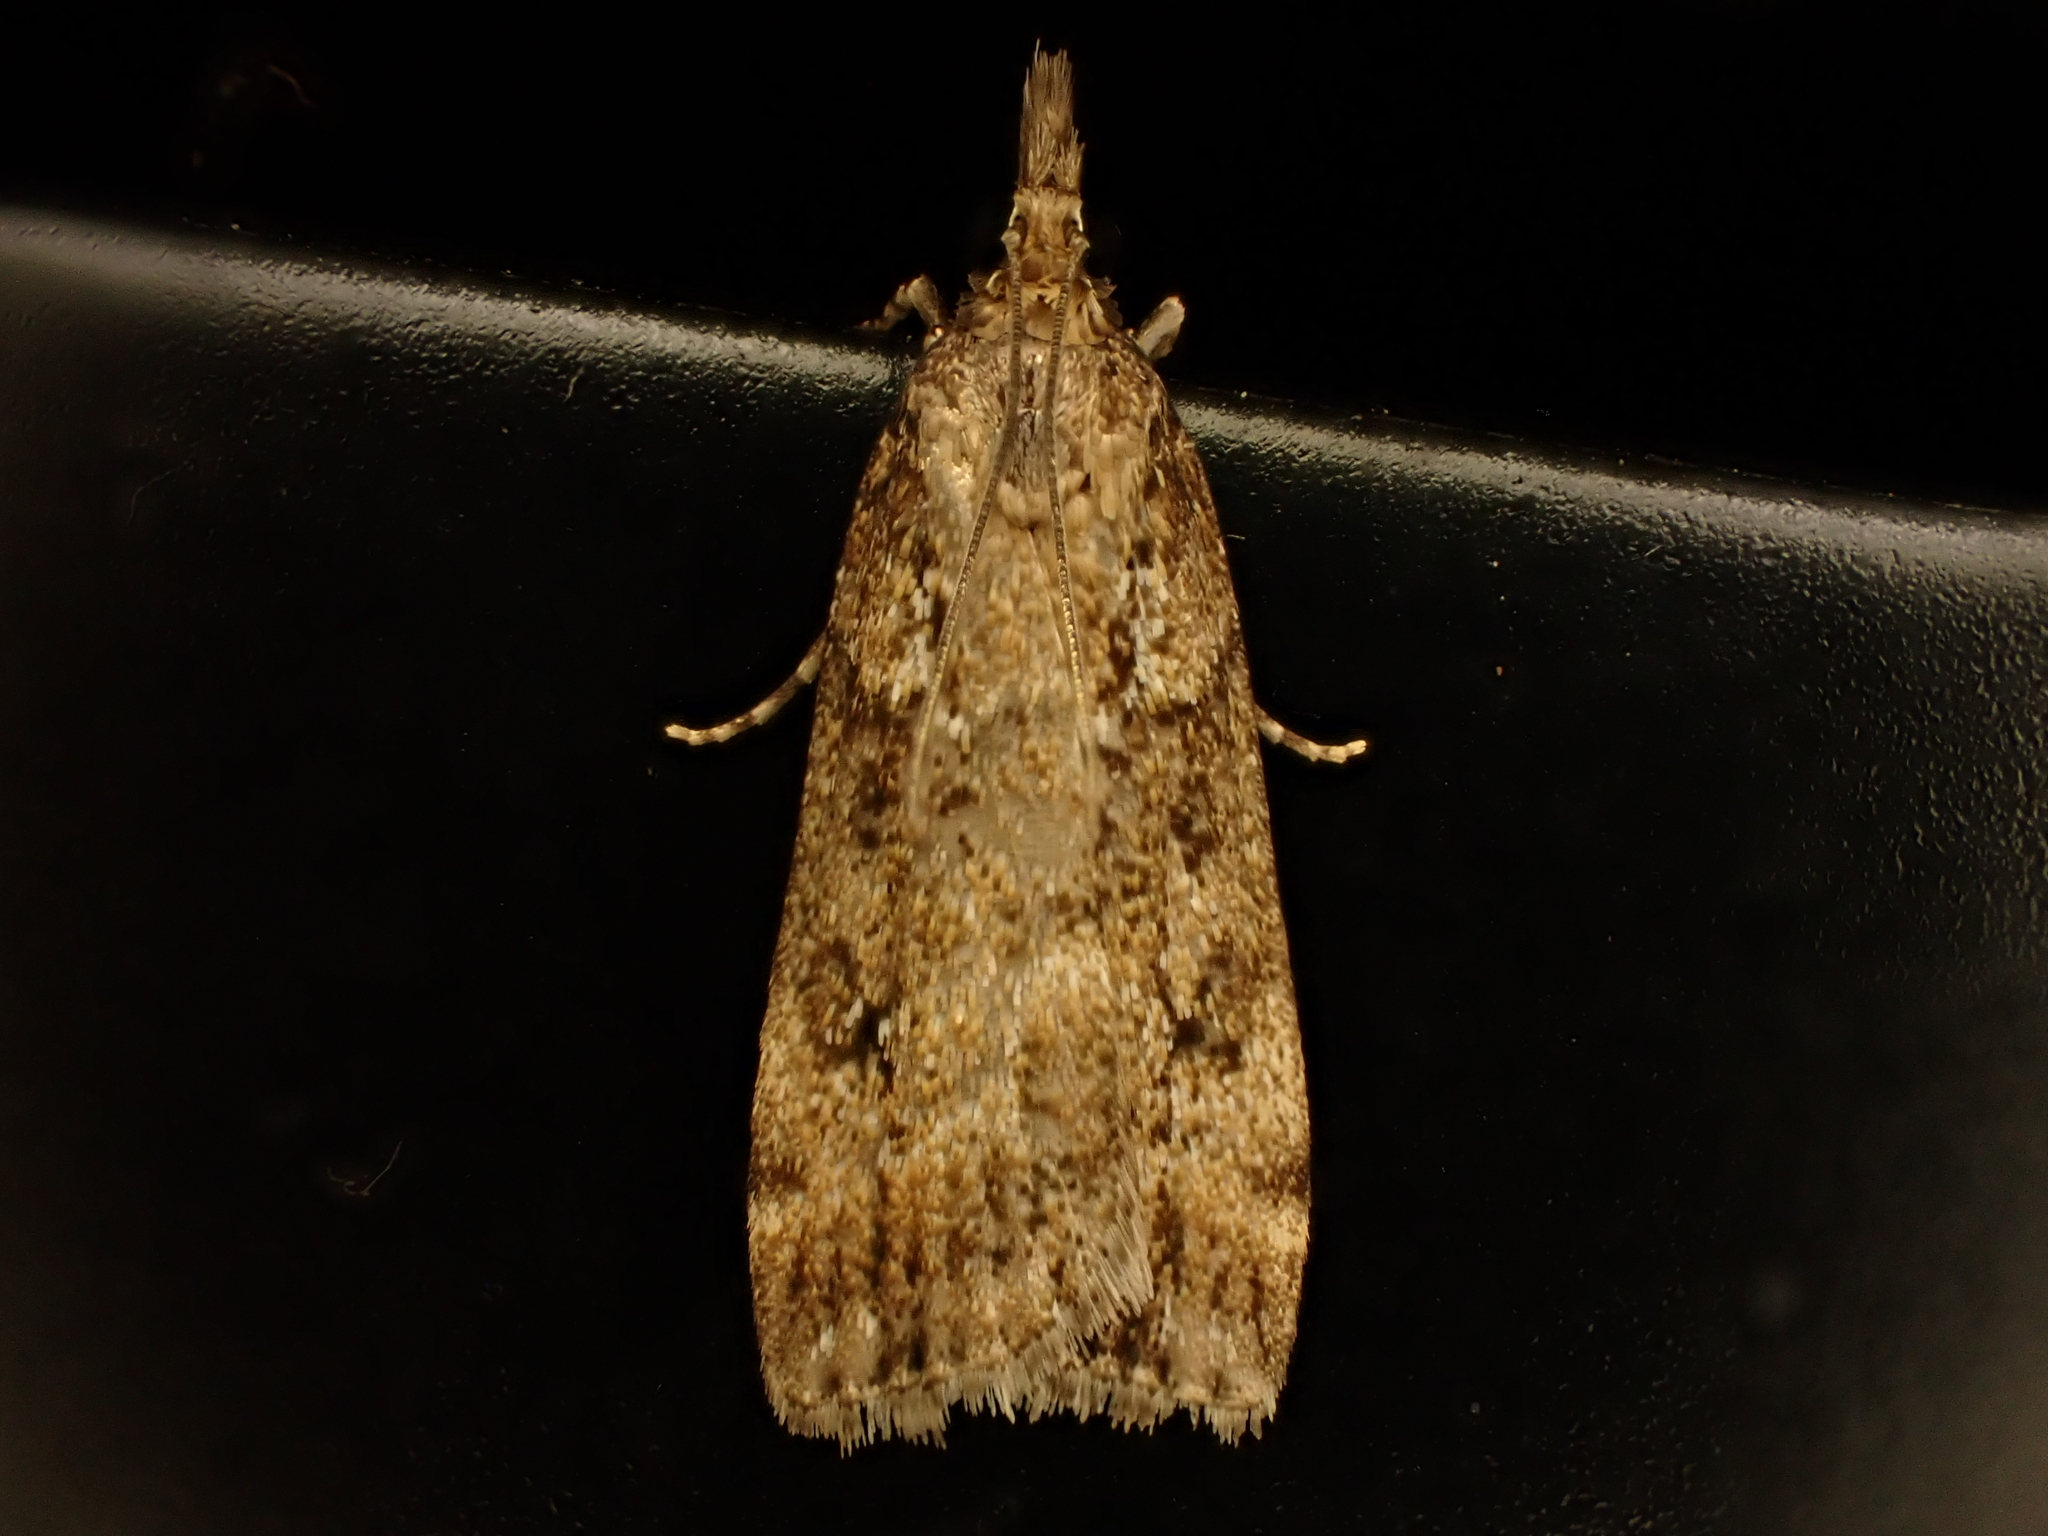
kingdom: Animalia
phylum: Arthropoda
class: Insecta
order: Lepidoptera
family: Crambidae
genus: Eudonia
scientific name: Eudonia dochmia
